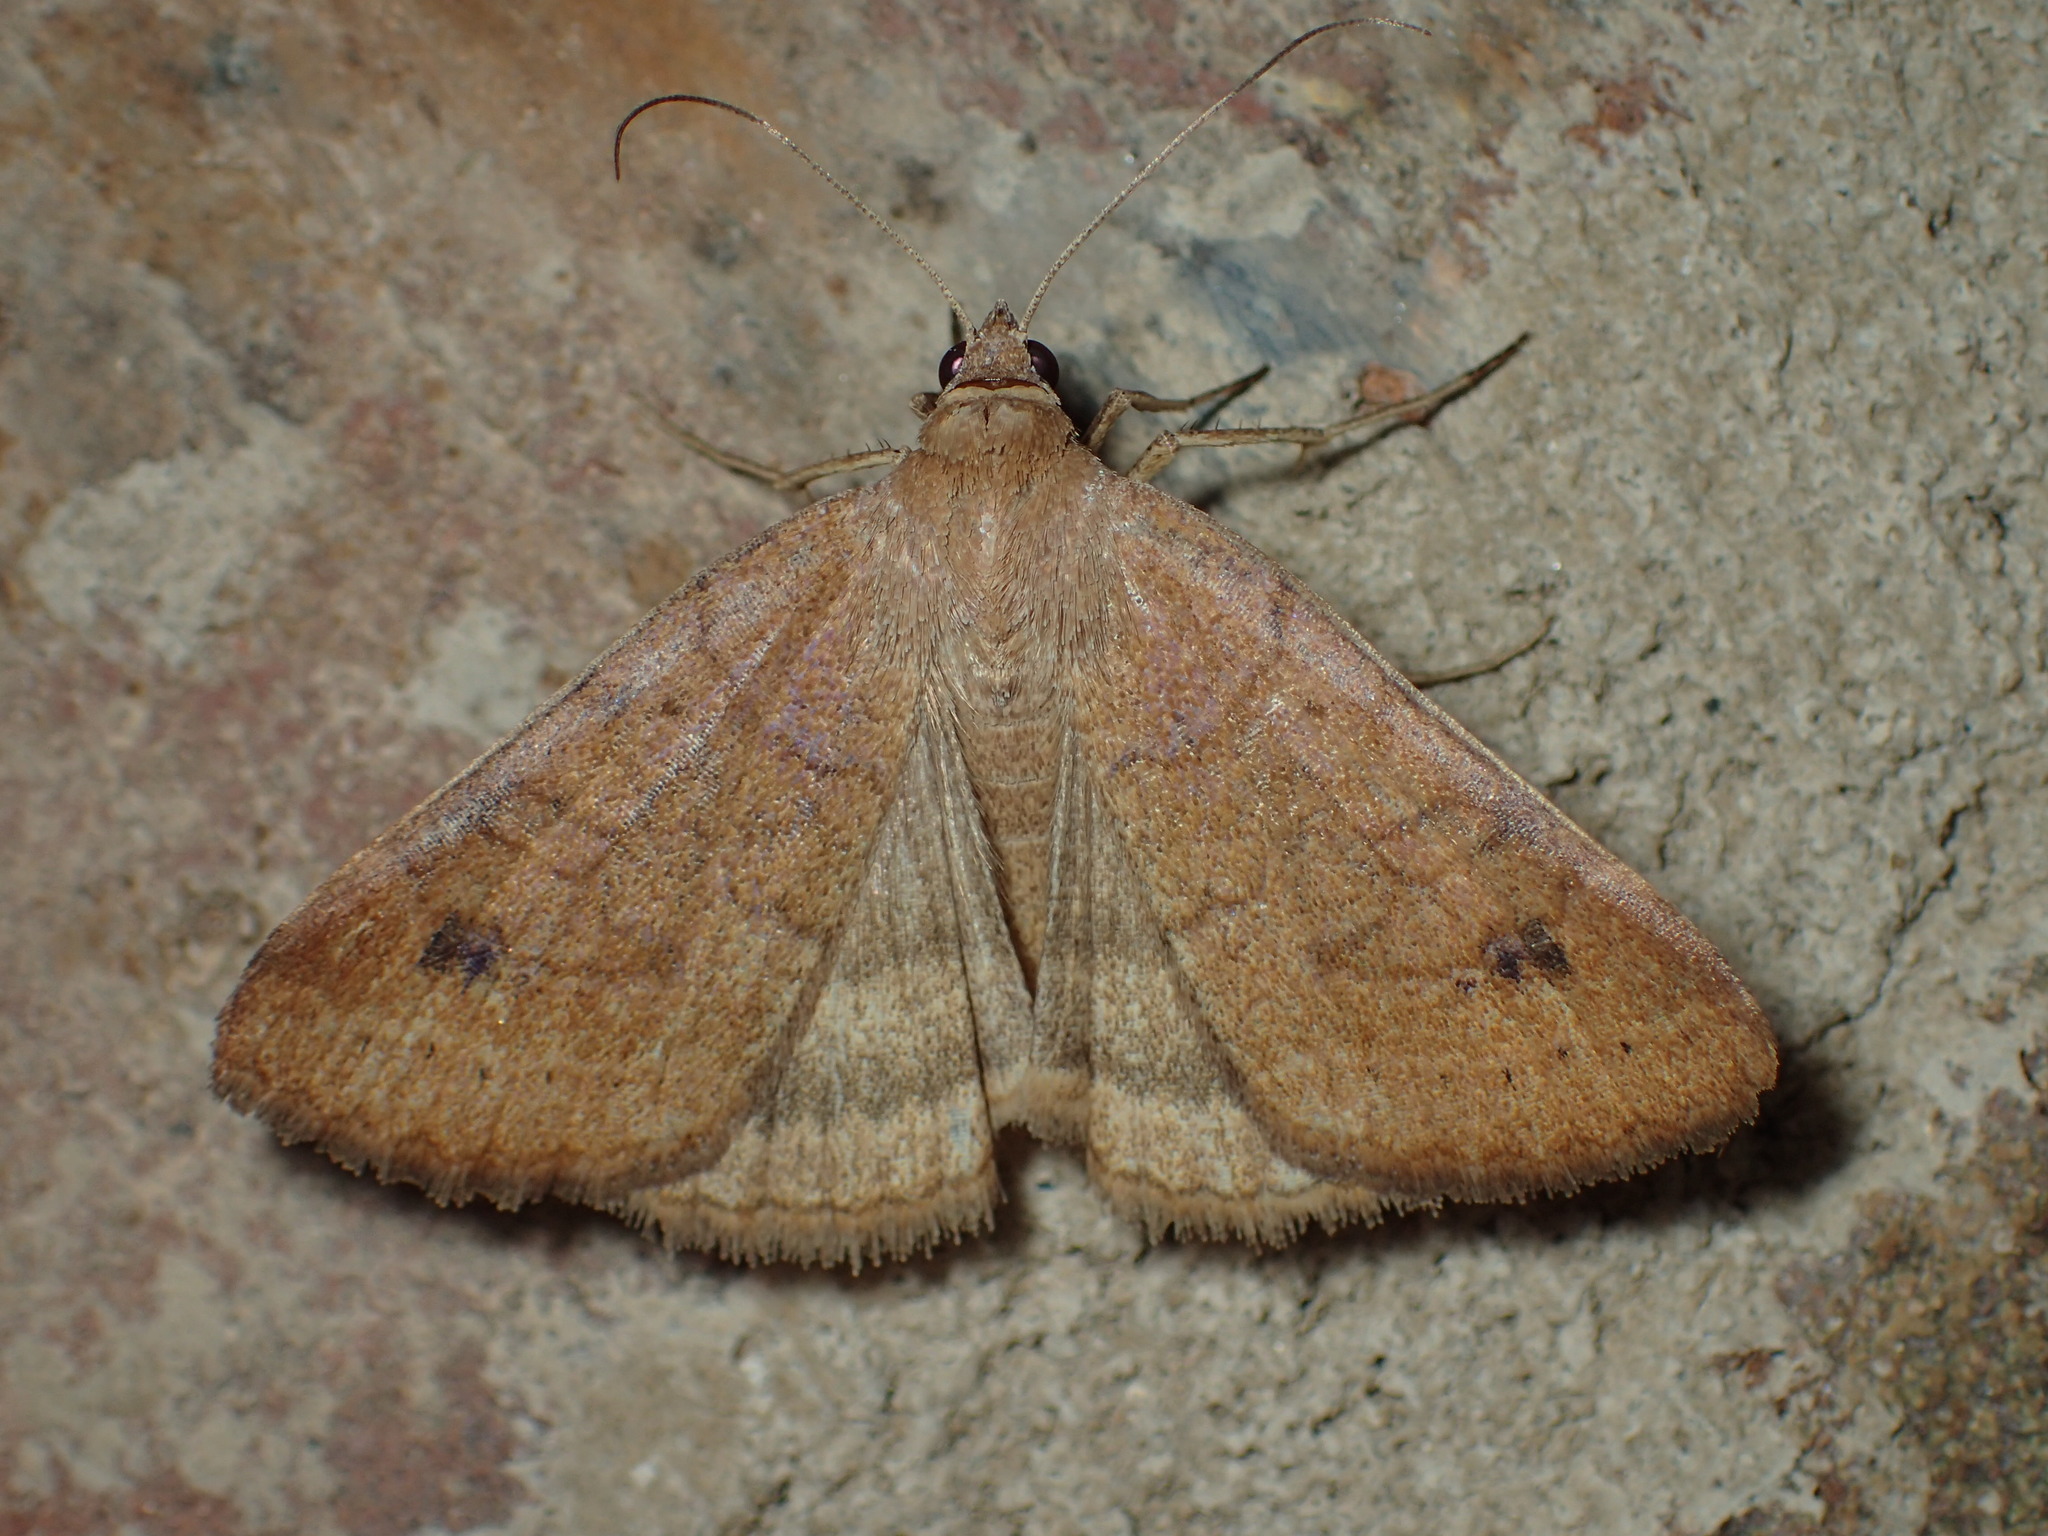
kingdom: Animalia
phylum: Arthropoda
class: Insecta
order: Lepidoptera
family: Erebidae
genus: Caenurgia
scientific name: Caenurgia chloropha
